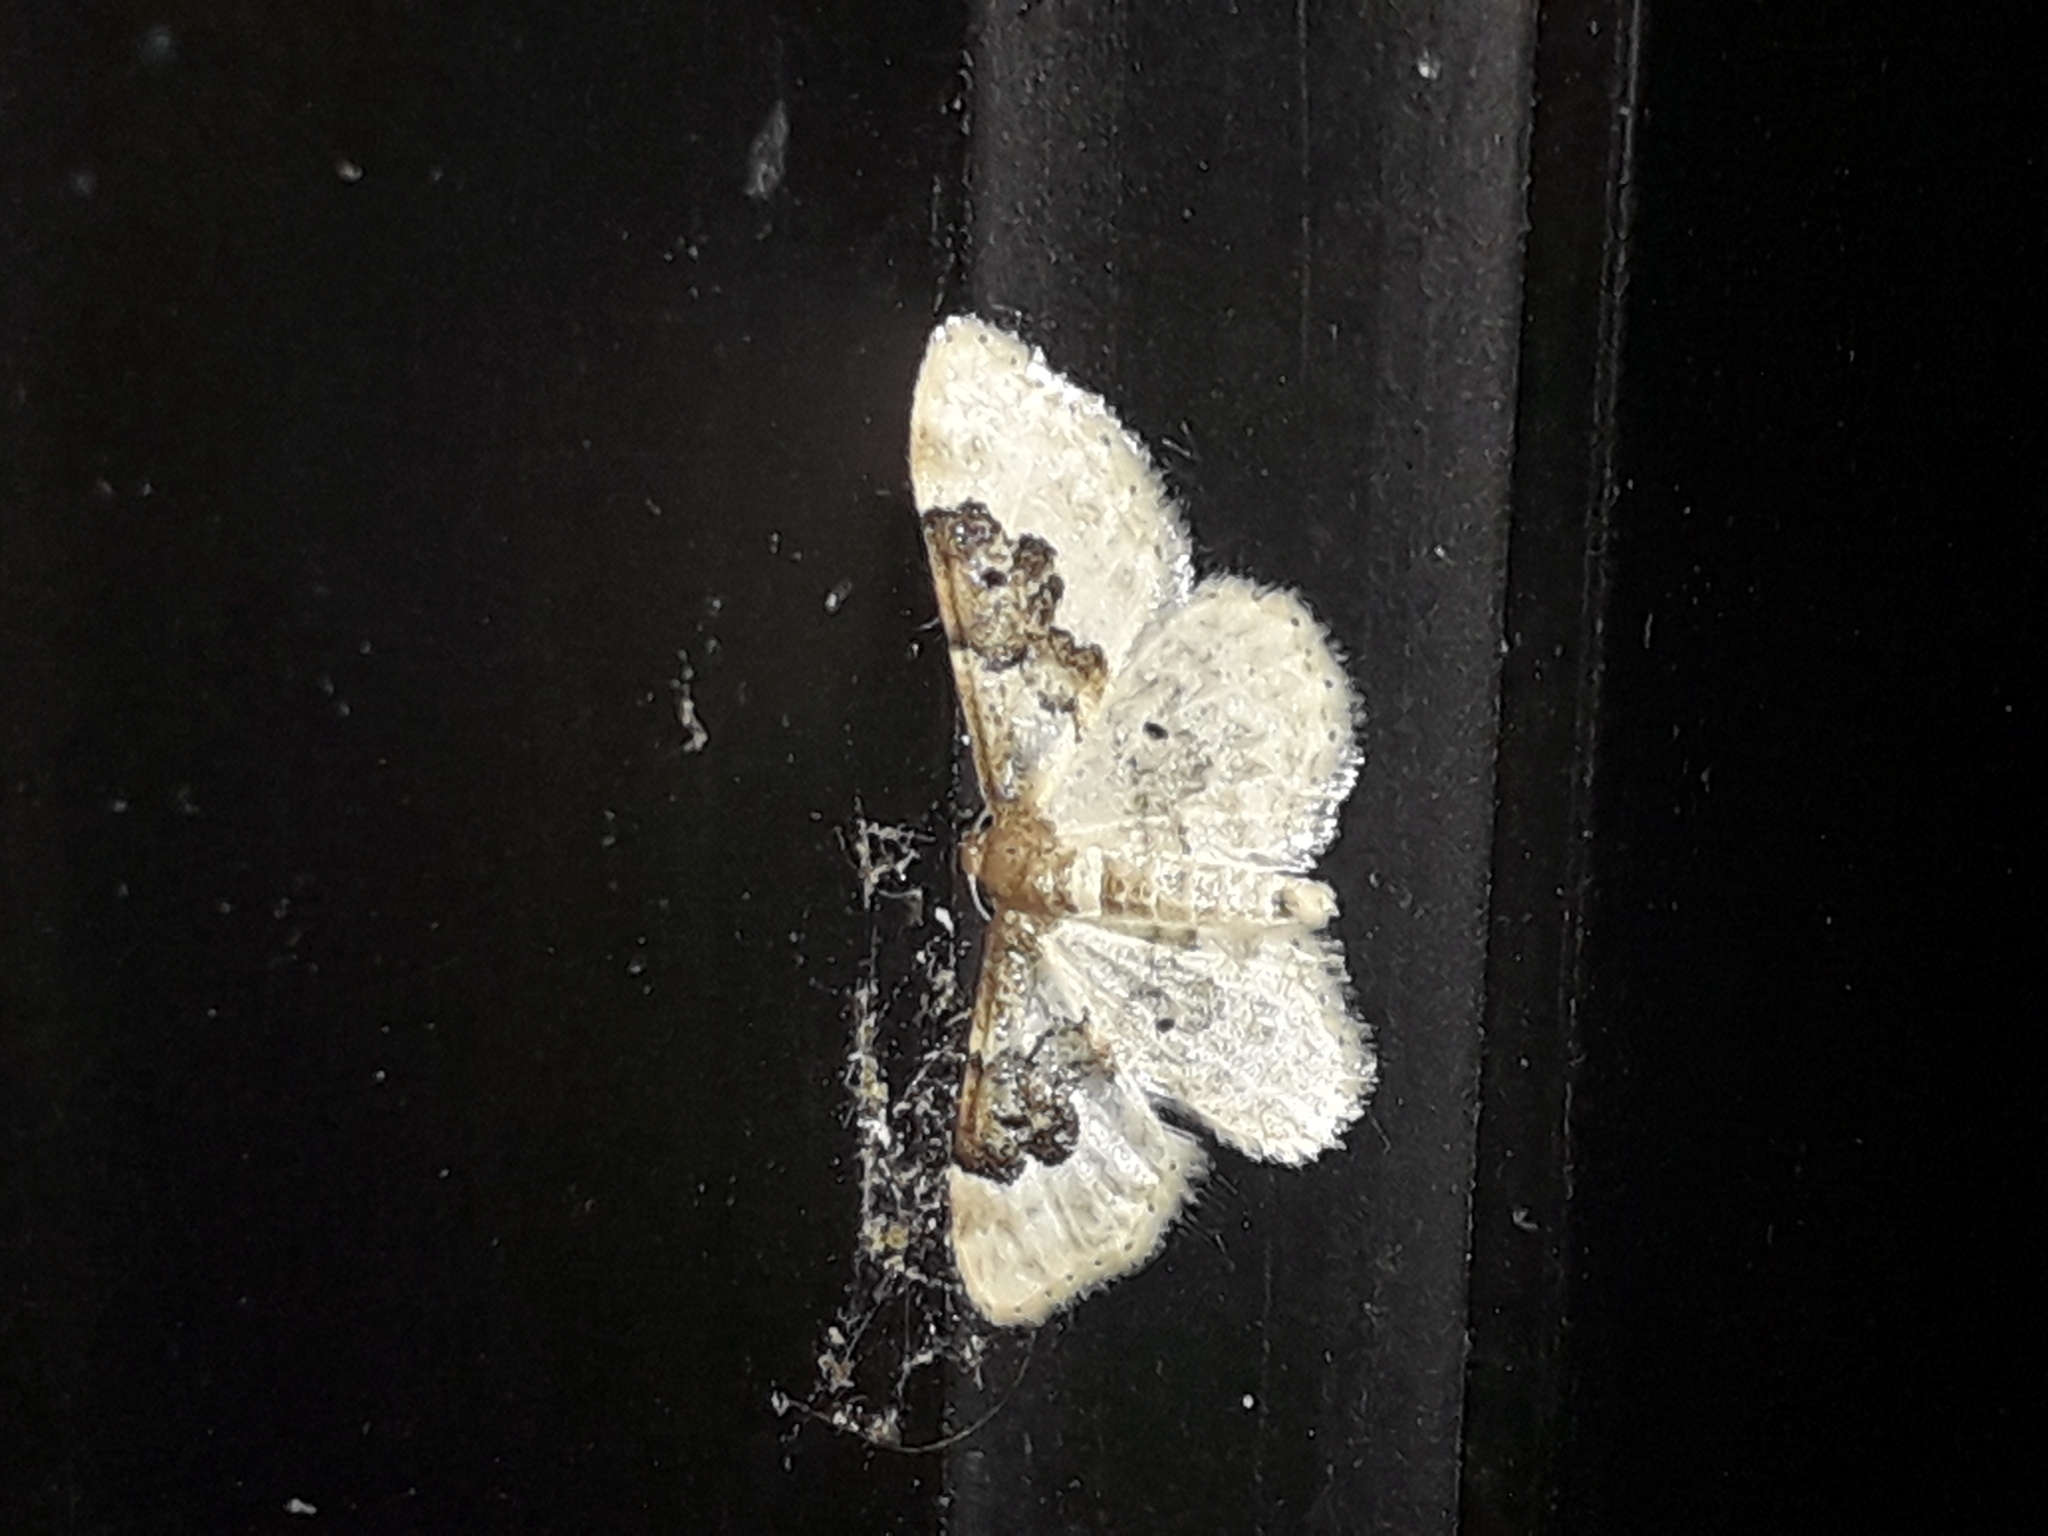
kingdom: Animalia
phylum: Arthropoda
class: Insecta
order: Lepidoptera
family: Geometridae
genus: Idaea
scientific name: Idaea rusticata
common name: Least carpet
